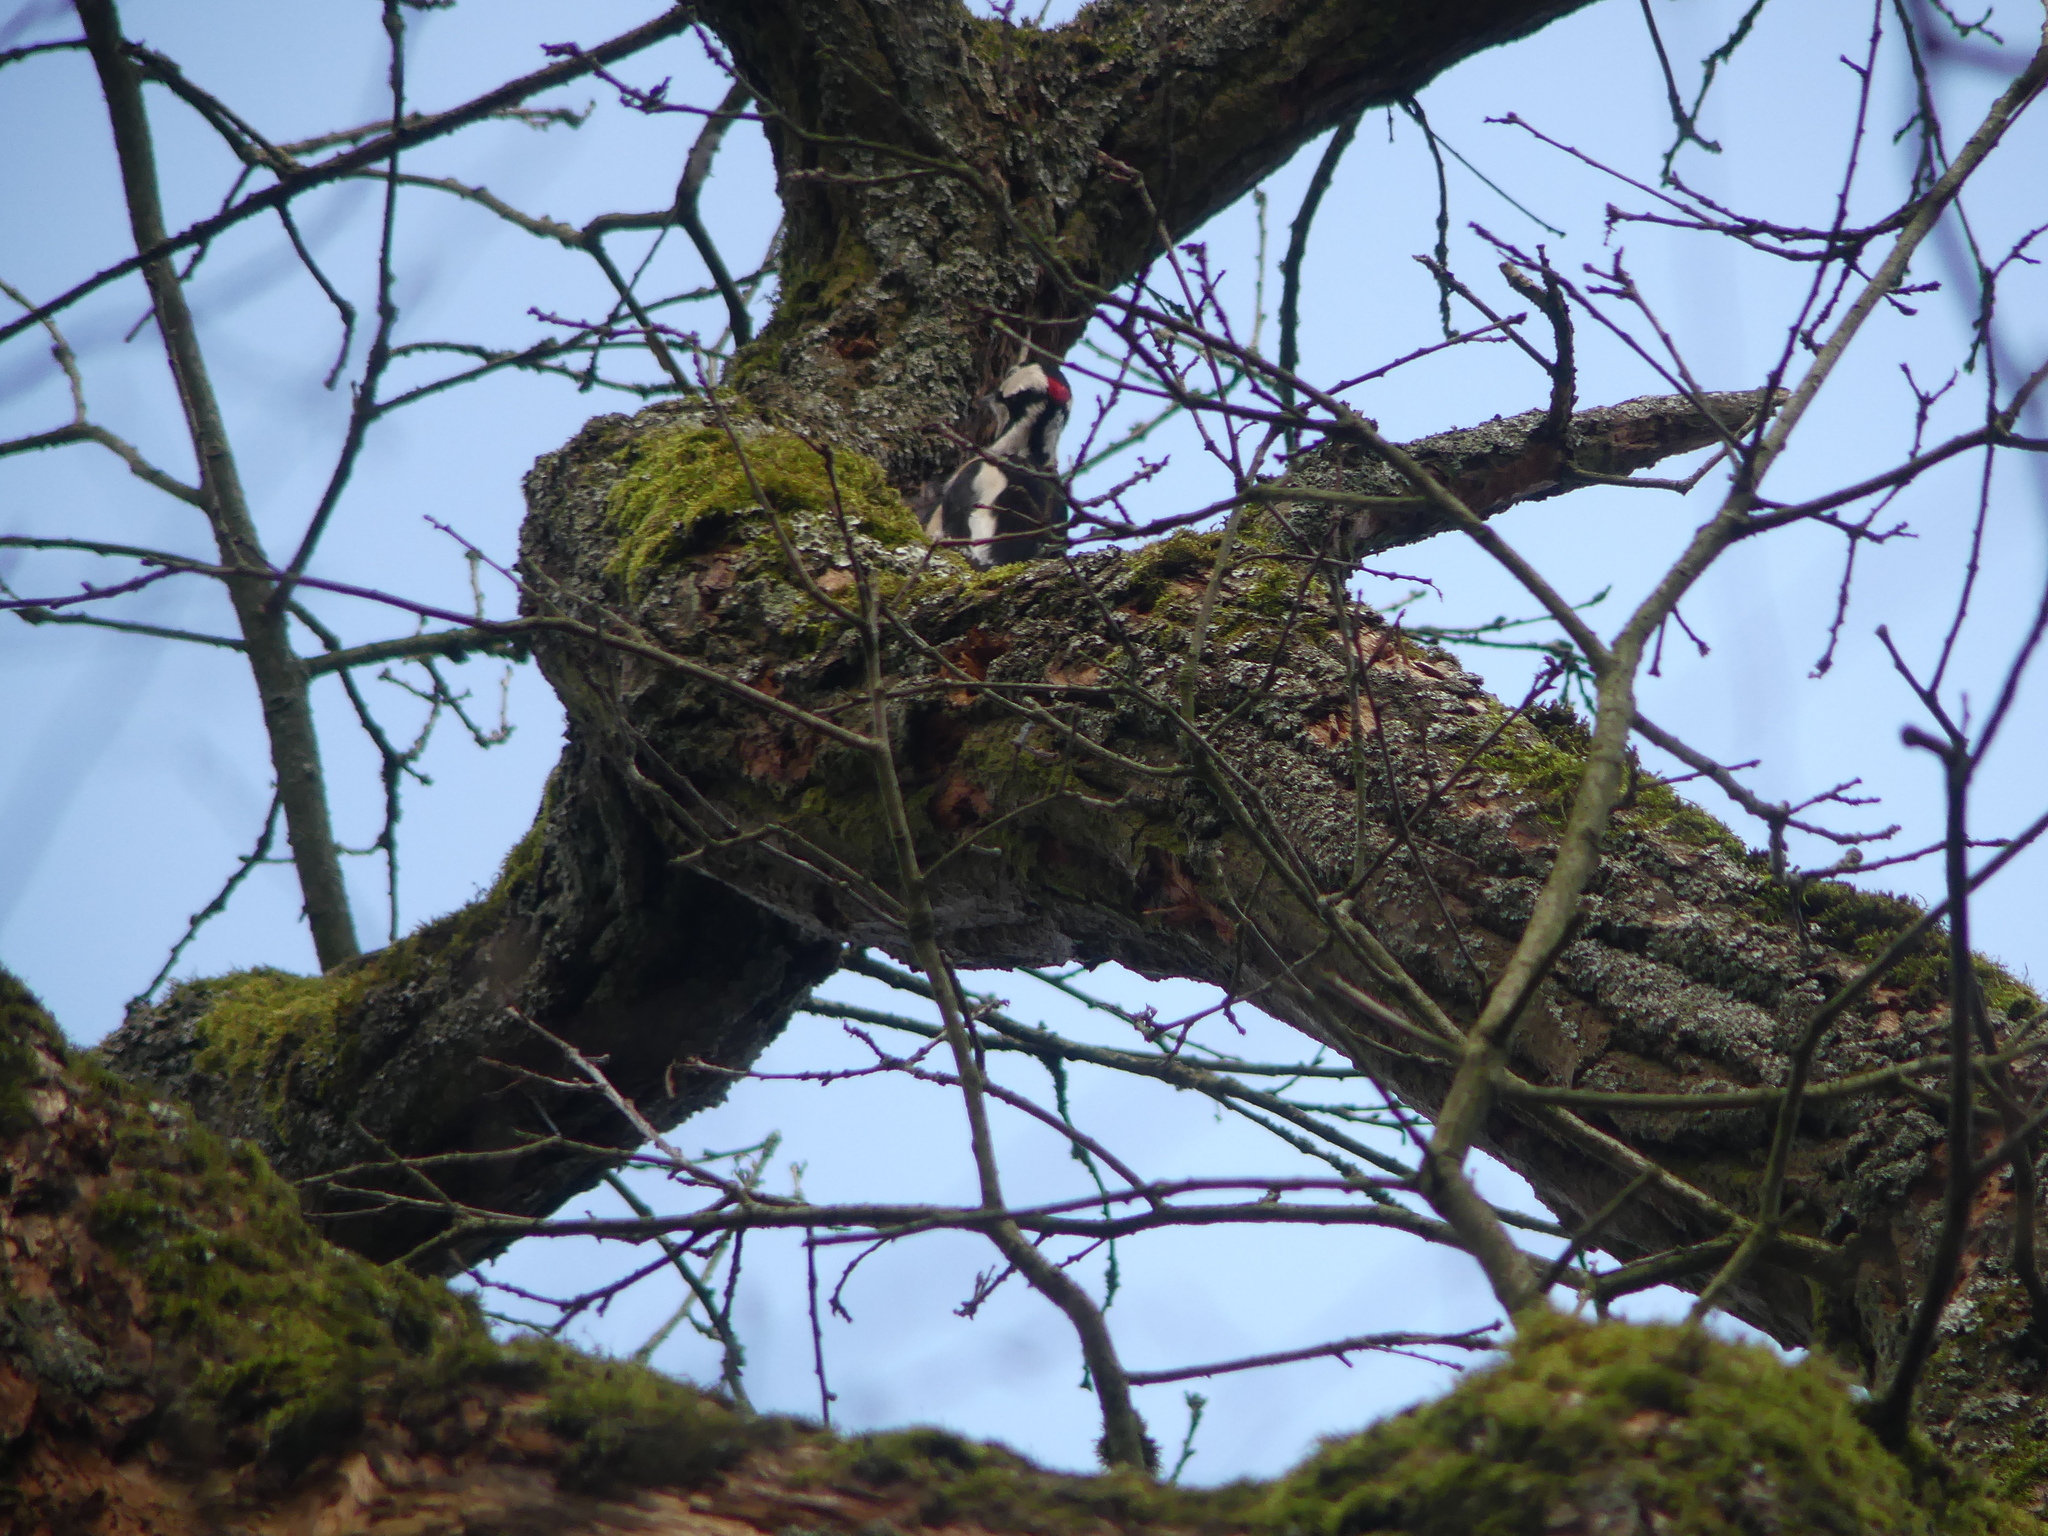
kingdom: Animalia
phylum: Chordata
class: Aves
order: Piciformes
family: Picidae
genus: Dendrocopos
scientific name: Dendrocopos major
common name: Great spotted woodpecker
